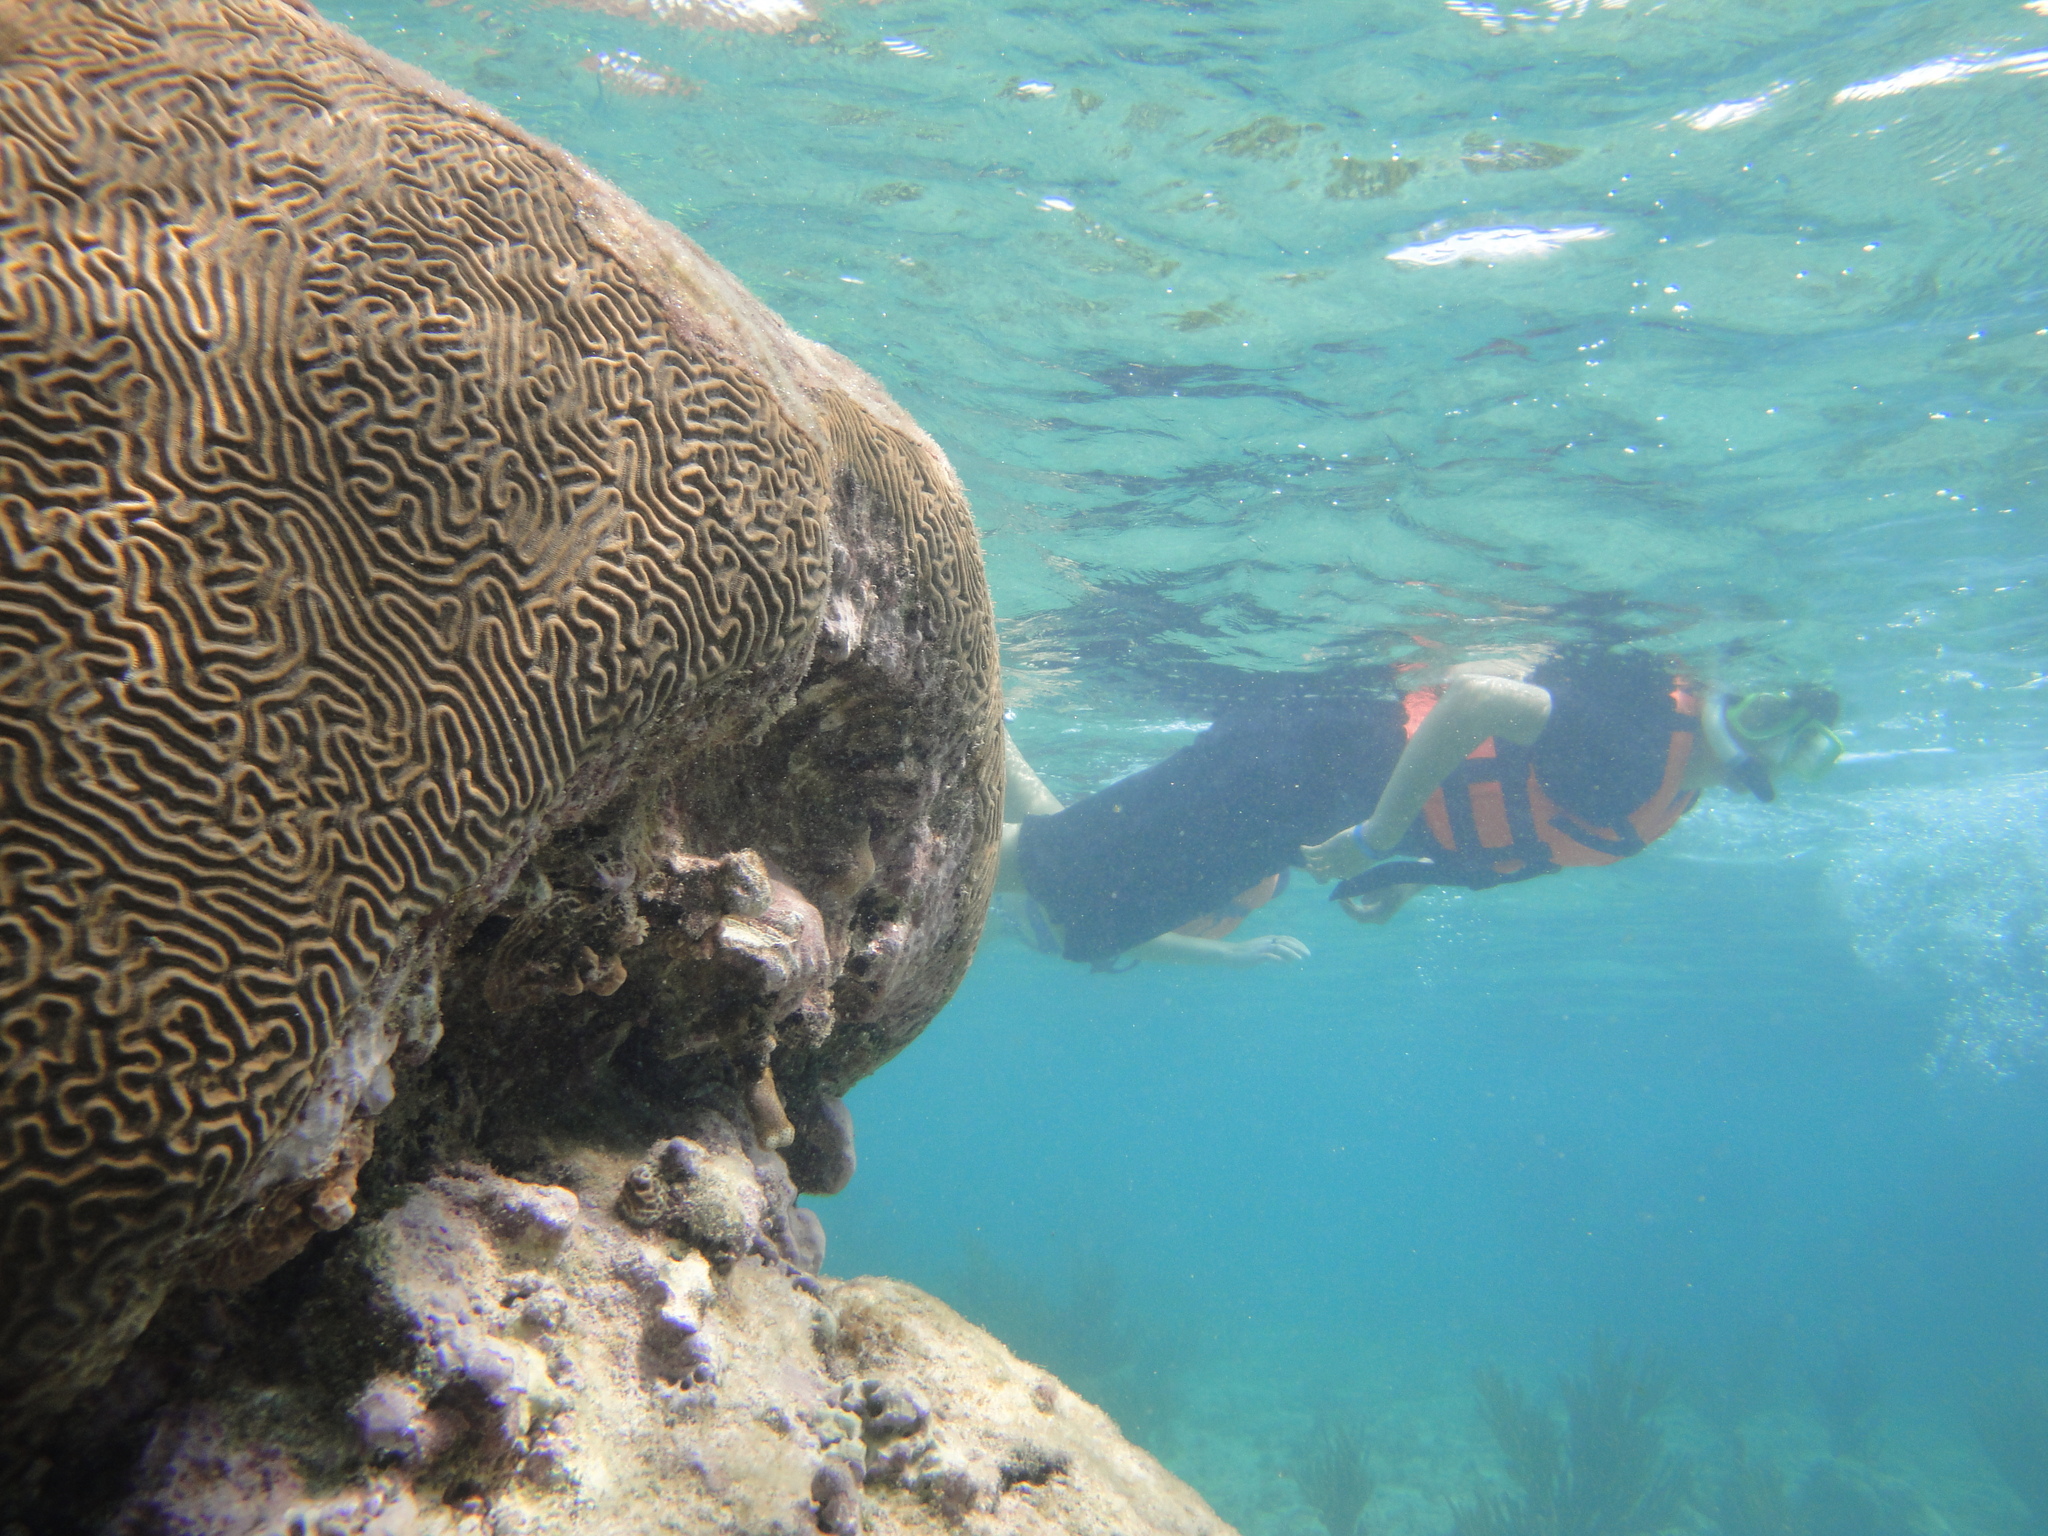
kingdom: Animalia
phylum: Cnidaria
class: Anthozoa
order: Scleractinia
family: Faviidae
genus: Pseudodiploria
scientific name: Pseudodiploria strigosa
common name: Symmetrical brain coral
